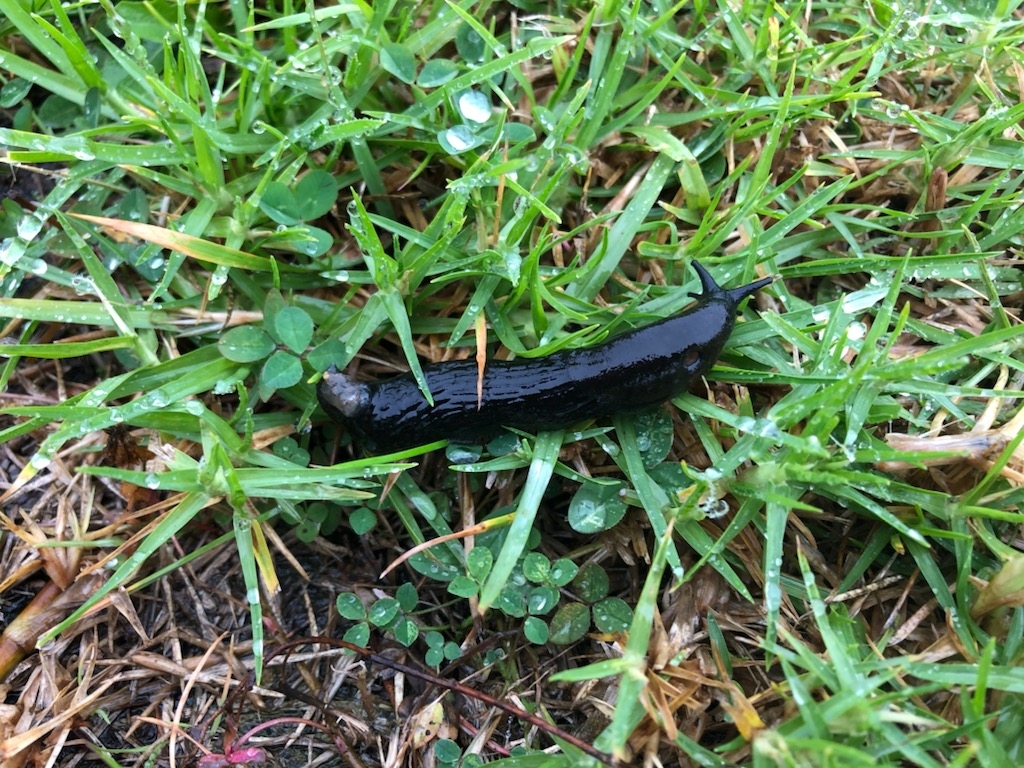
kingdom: Animalia
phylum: Mollusca
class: Gastropoda
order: Stylommatophora
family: Arionidae
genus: Arion
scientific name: Arion ater
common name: Black arion
